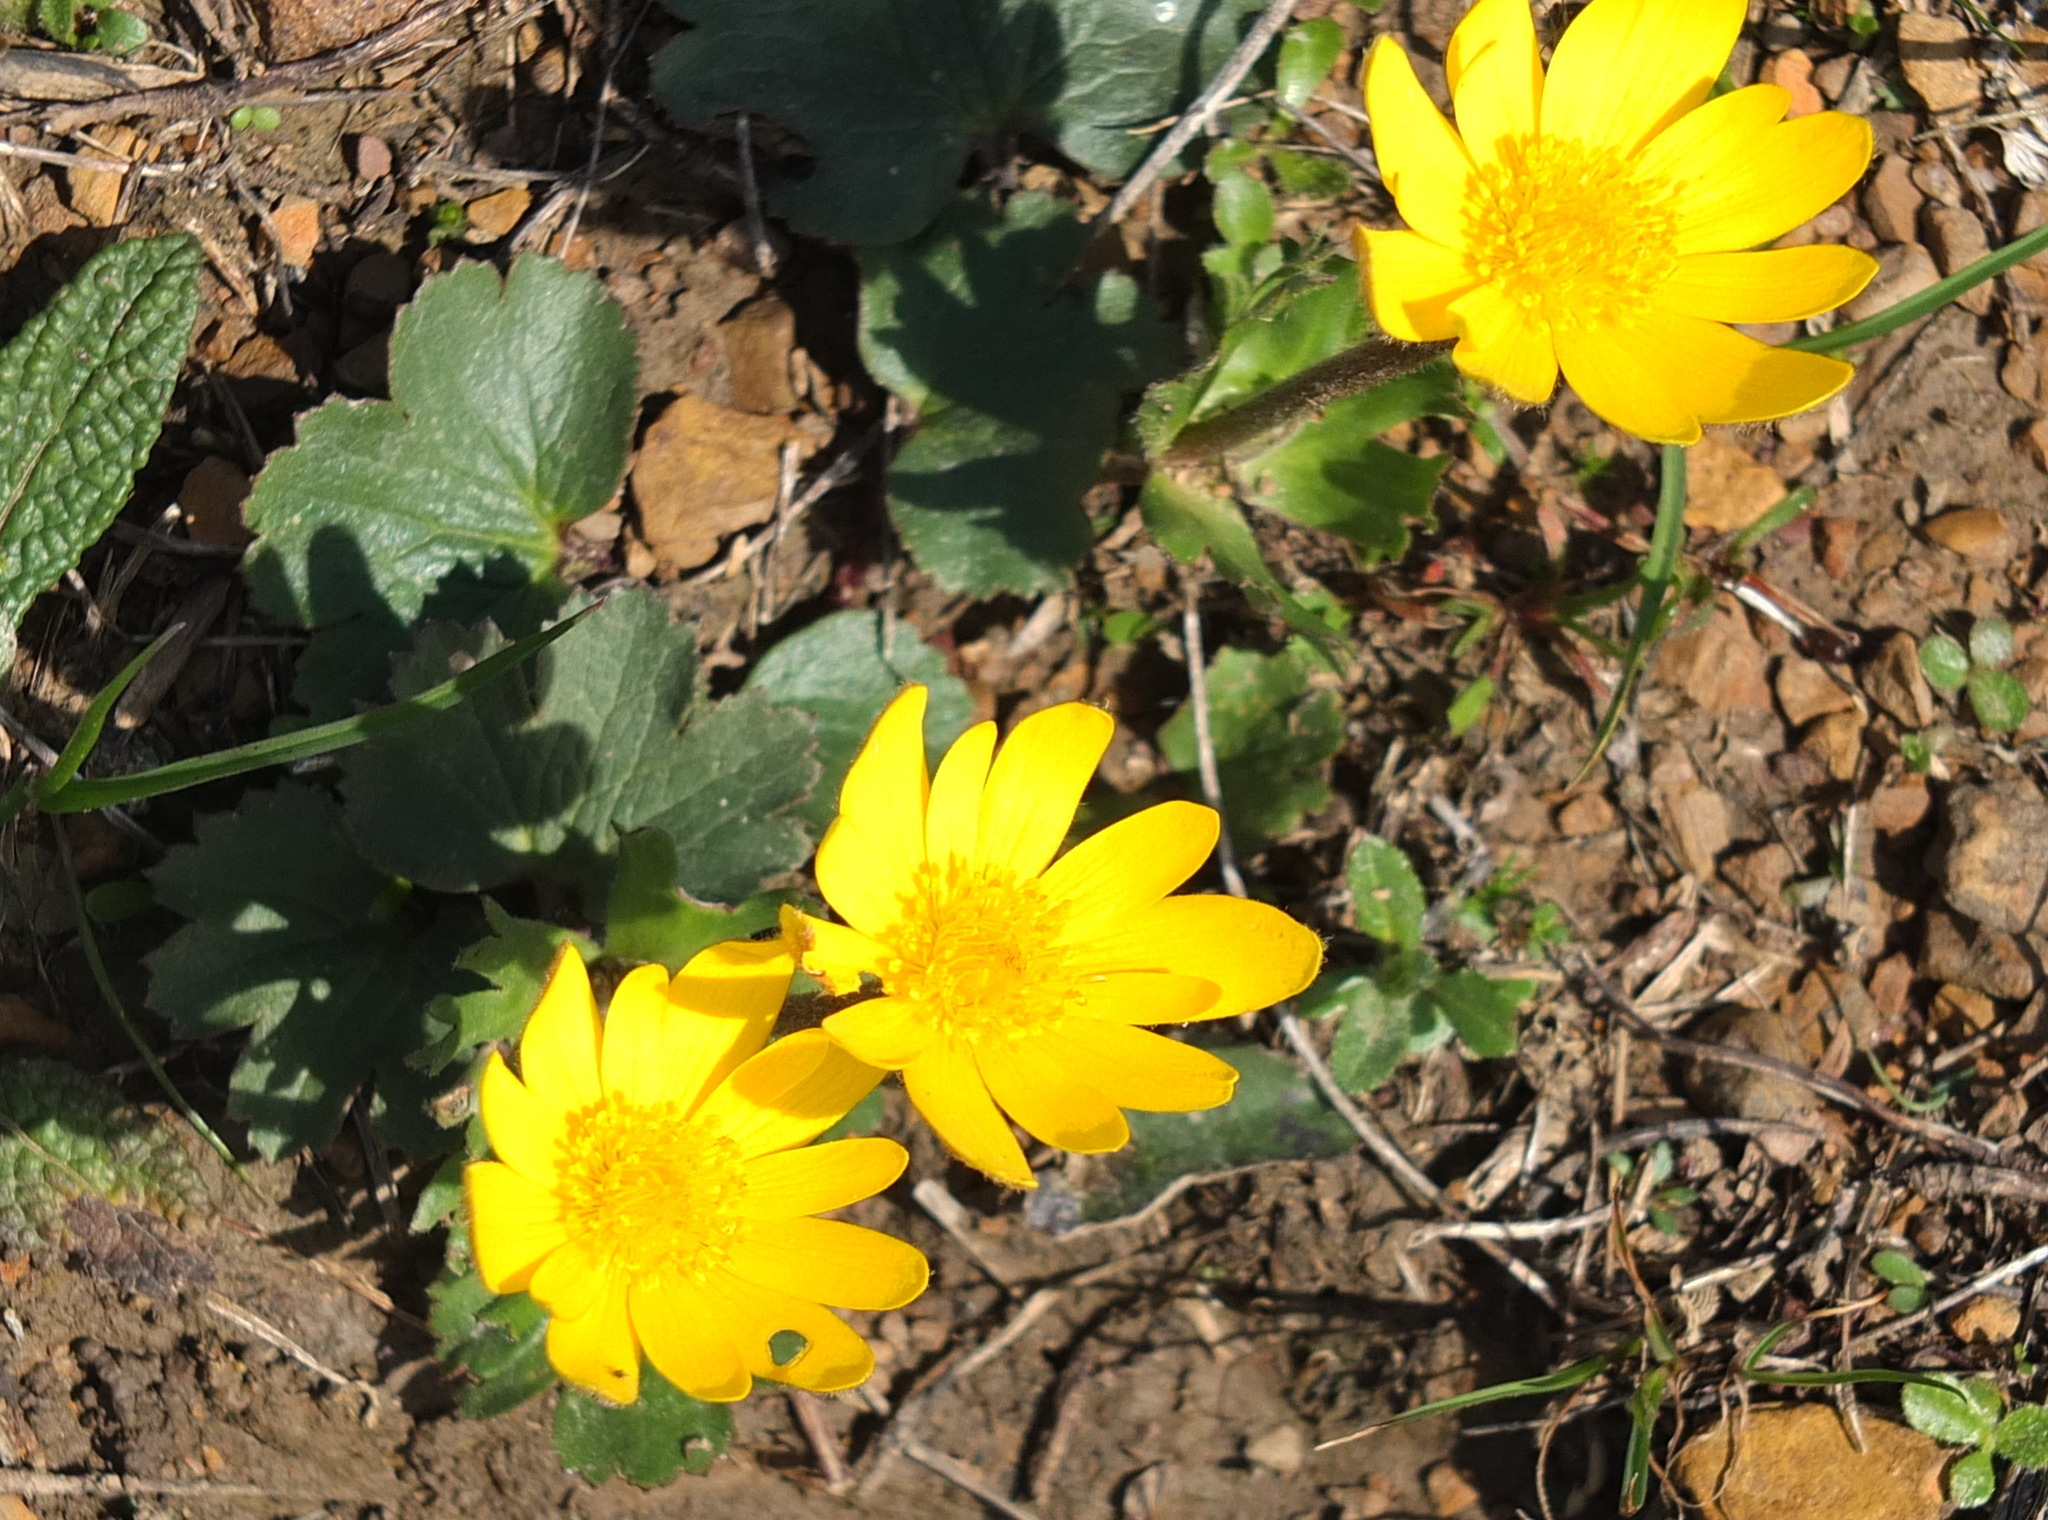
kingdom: Plantae
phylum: Tracheophyta
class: Magnoliopsida
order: Ranunculales
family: Ranunculaceae
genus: Anemone
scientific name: Anemone palmata
